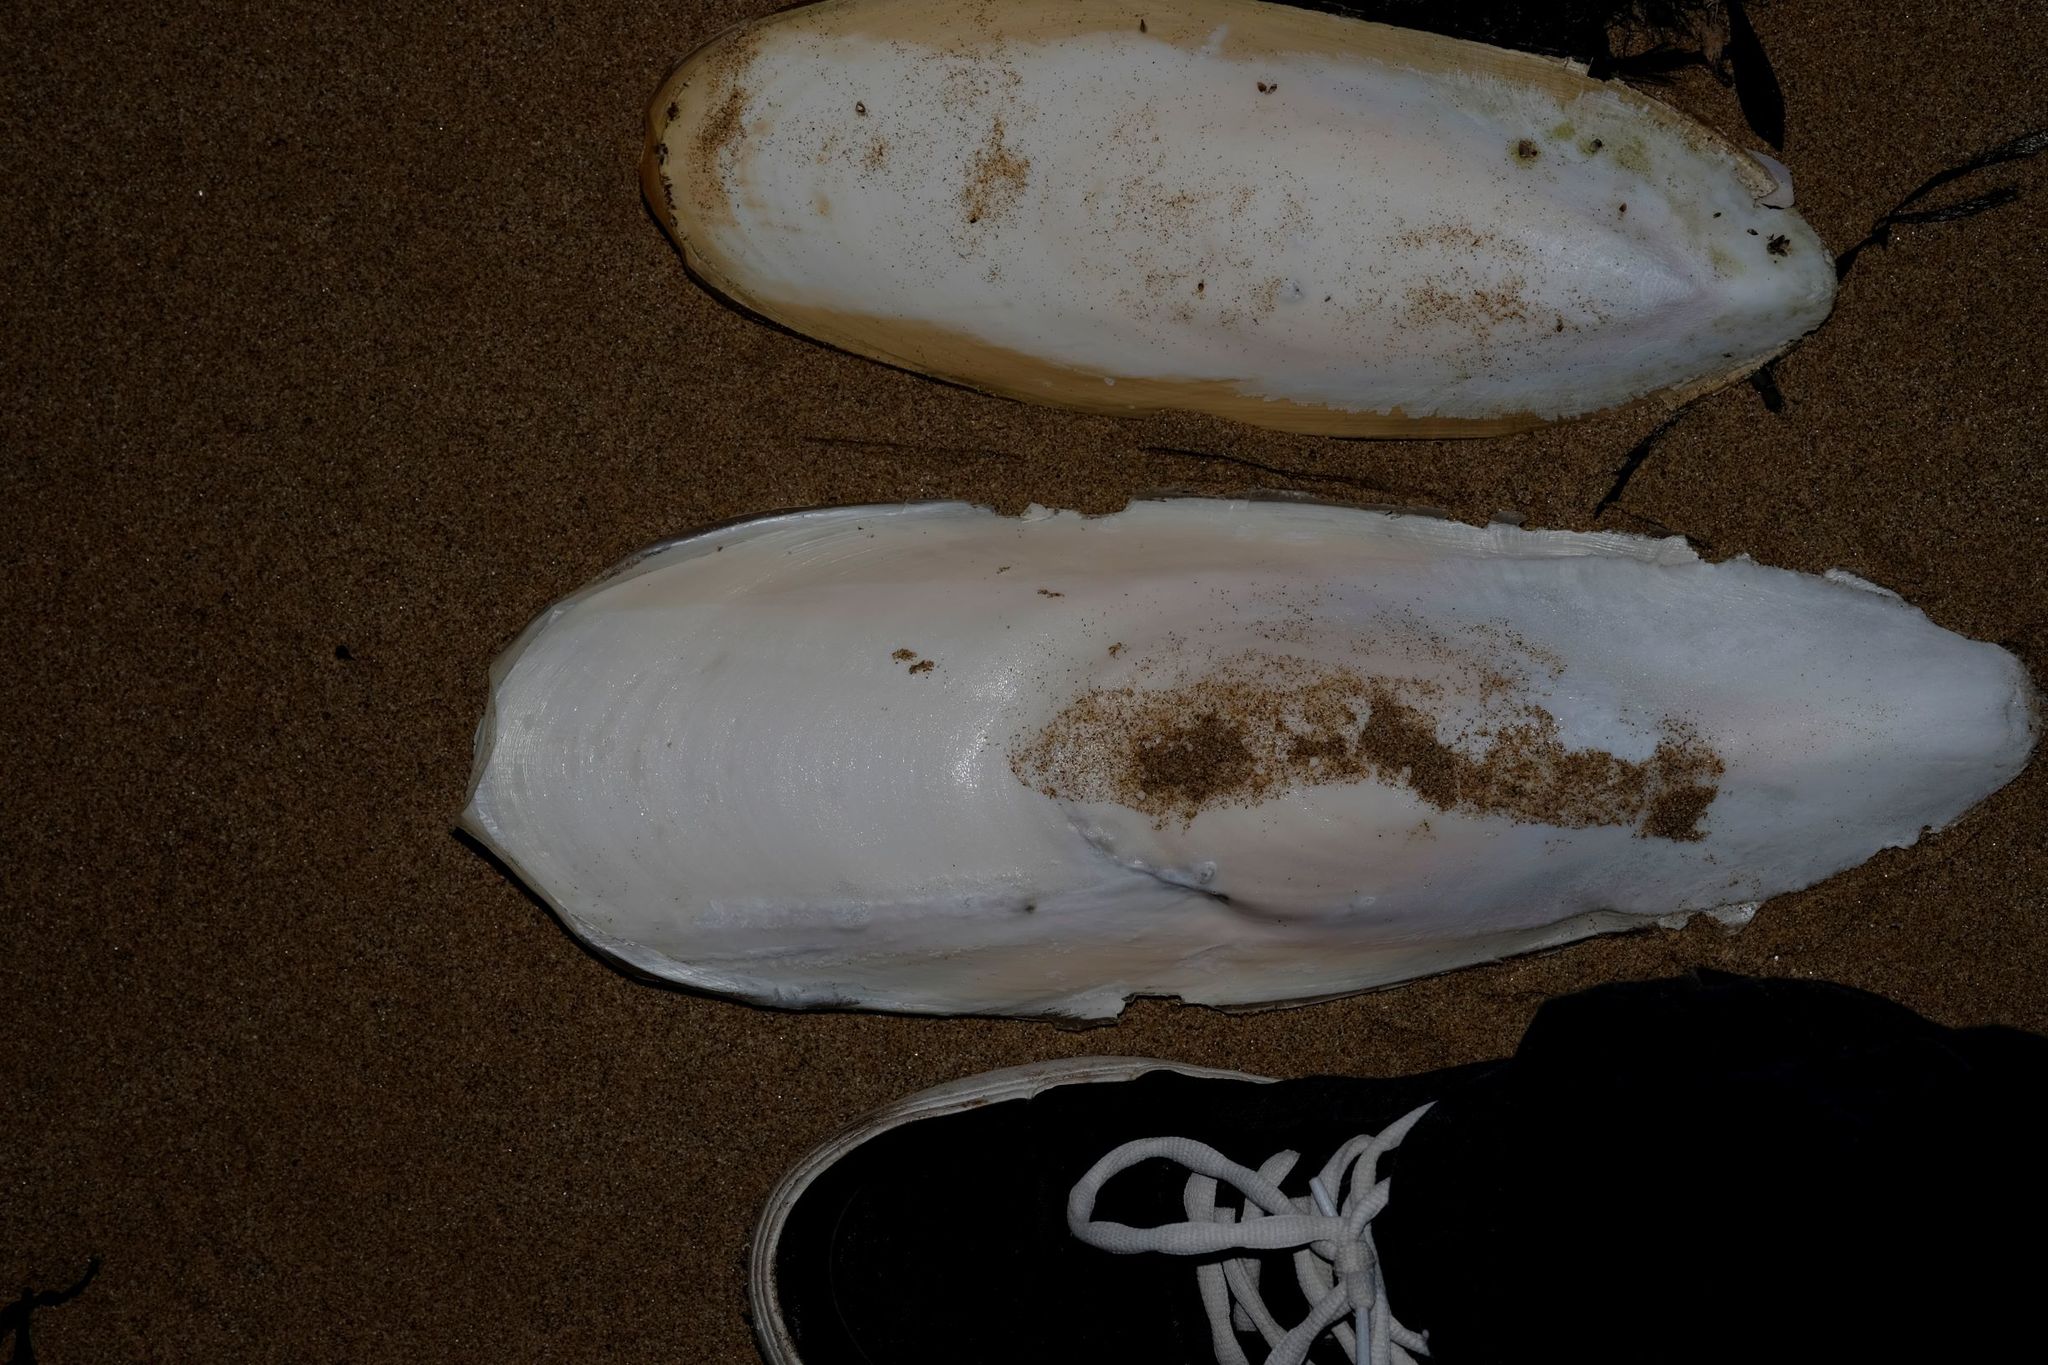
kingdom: Animalia
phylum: Mollusca
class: Cephalopoda
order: Sepiida
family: Sepiidae
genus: Ascarosepion
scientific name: Ascarosepion apama
